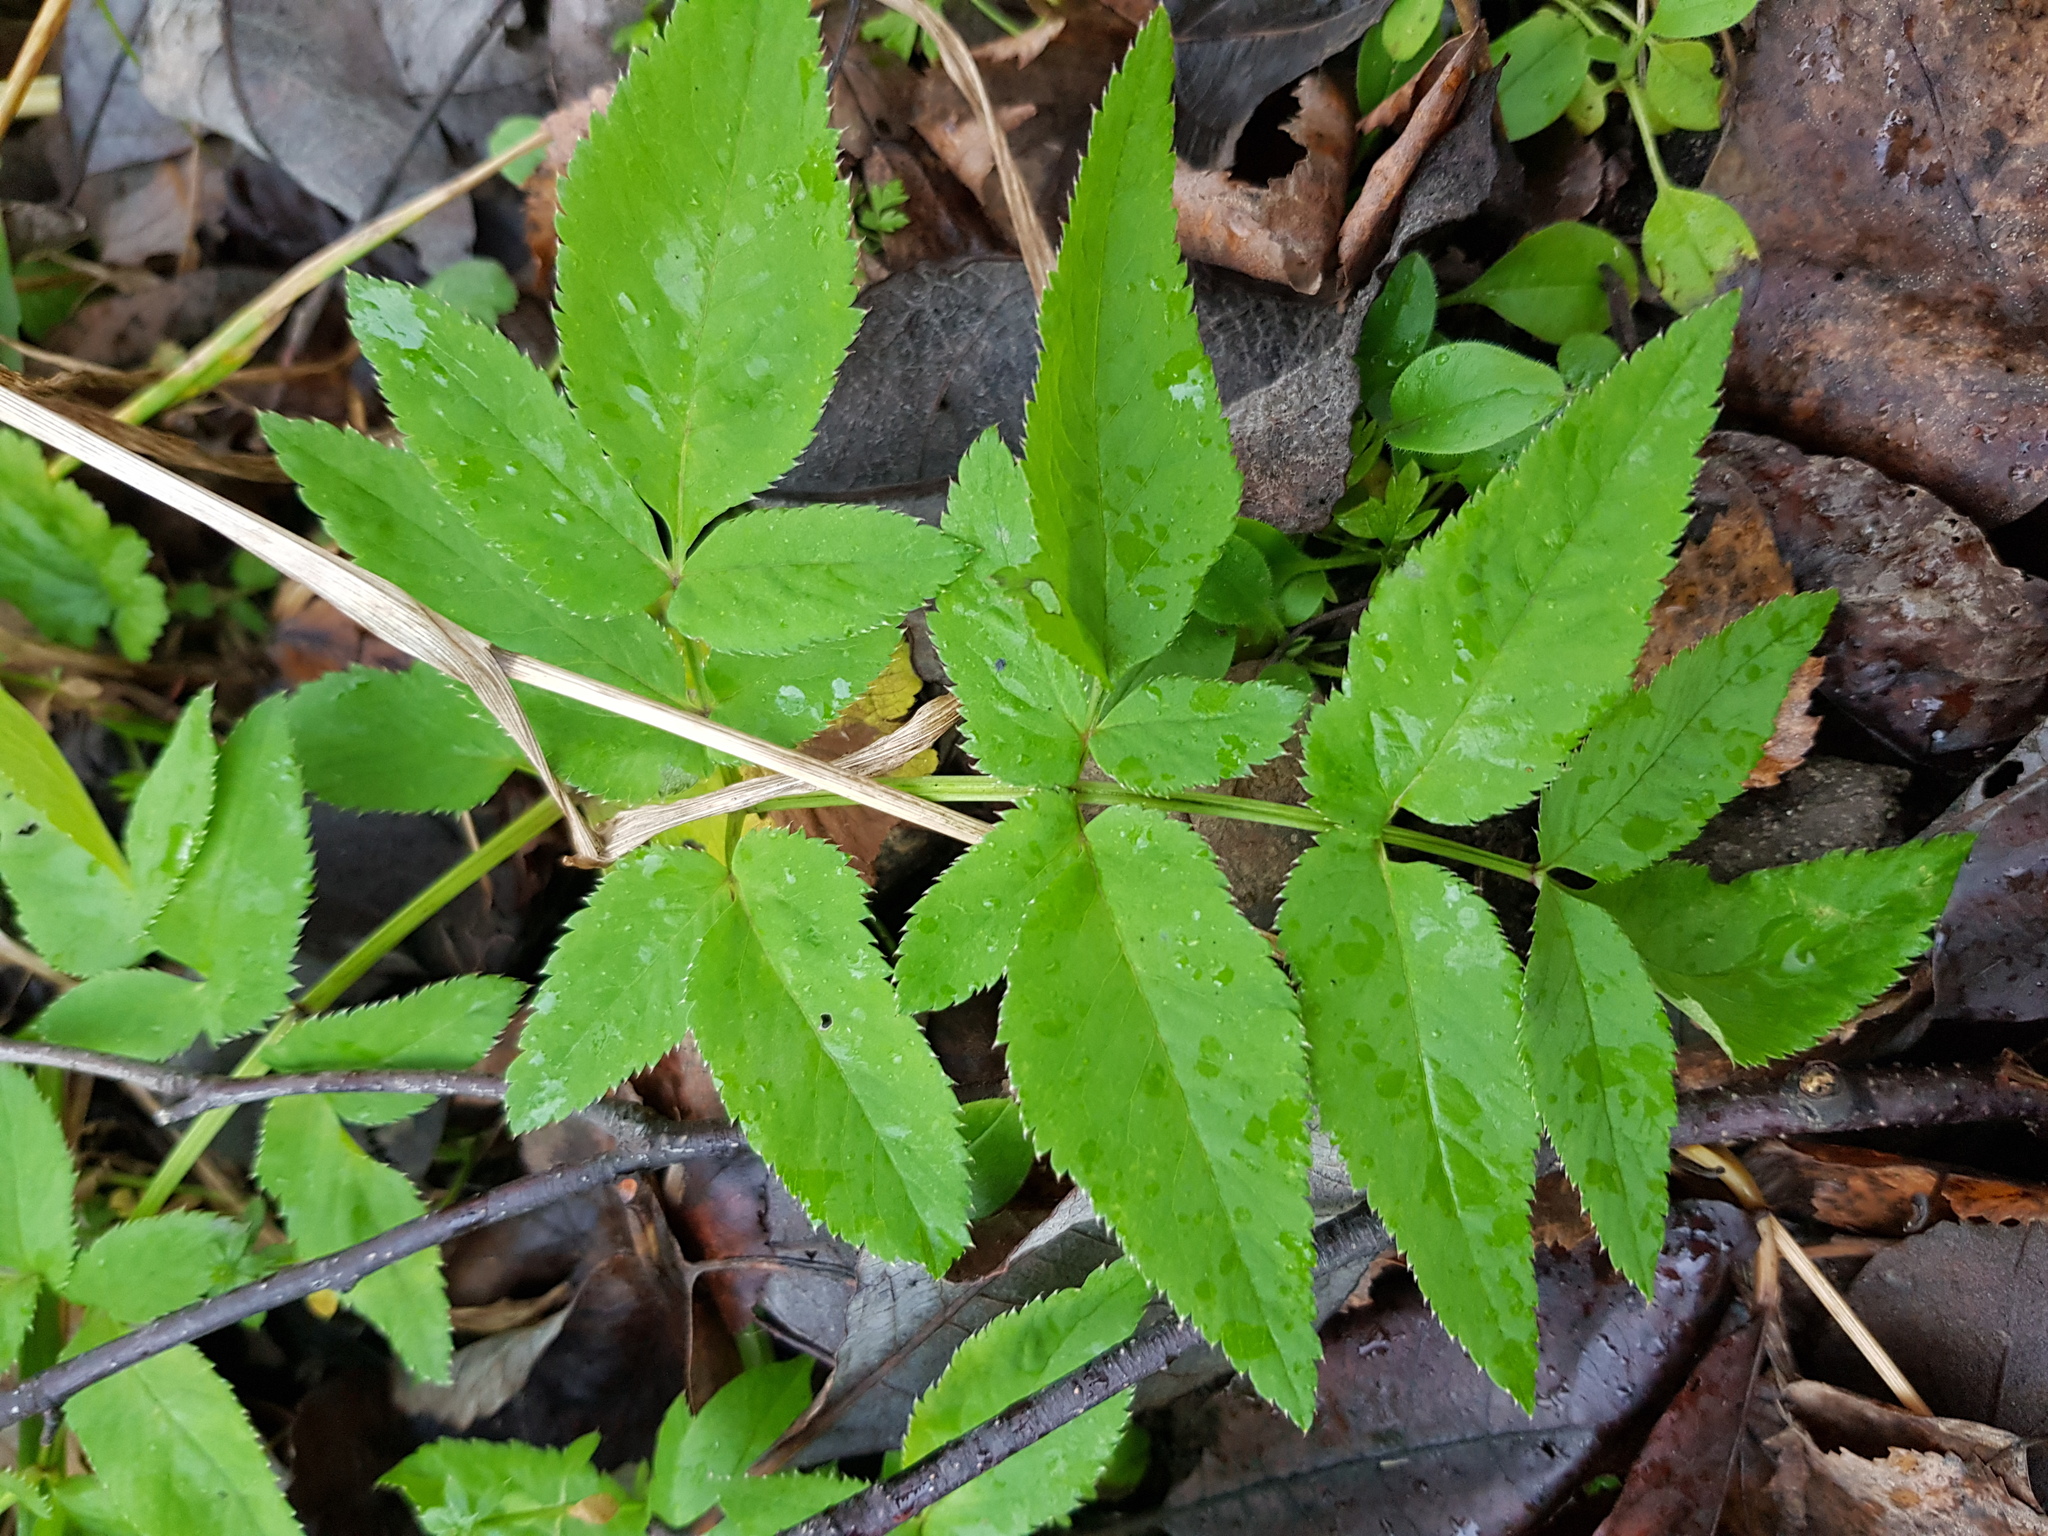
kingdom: Plantae
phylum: Tracheophyta
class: Magnoliopsida
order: Apiales
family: Apiaceae
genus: Angelica
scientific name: Angelica sylvestris
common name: Wild angelica
